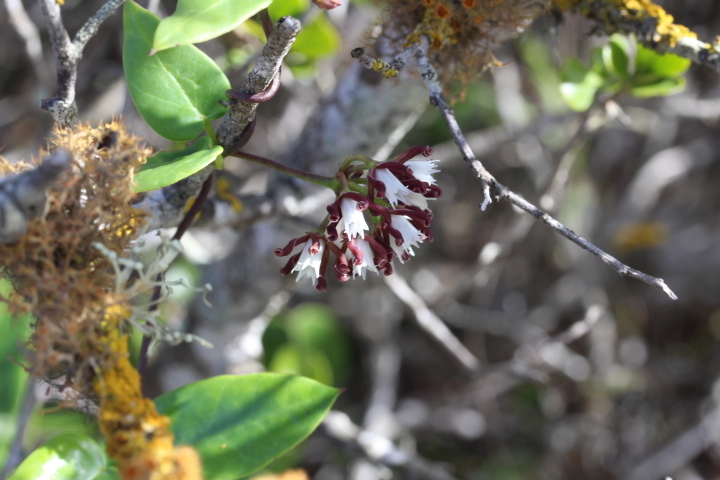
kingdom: Plantae
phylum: Tracheophyta
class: Magnoliopsida
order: Gentianales
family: Apocynaceae
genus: Cynanchum
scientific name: Cynanchum africanum
